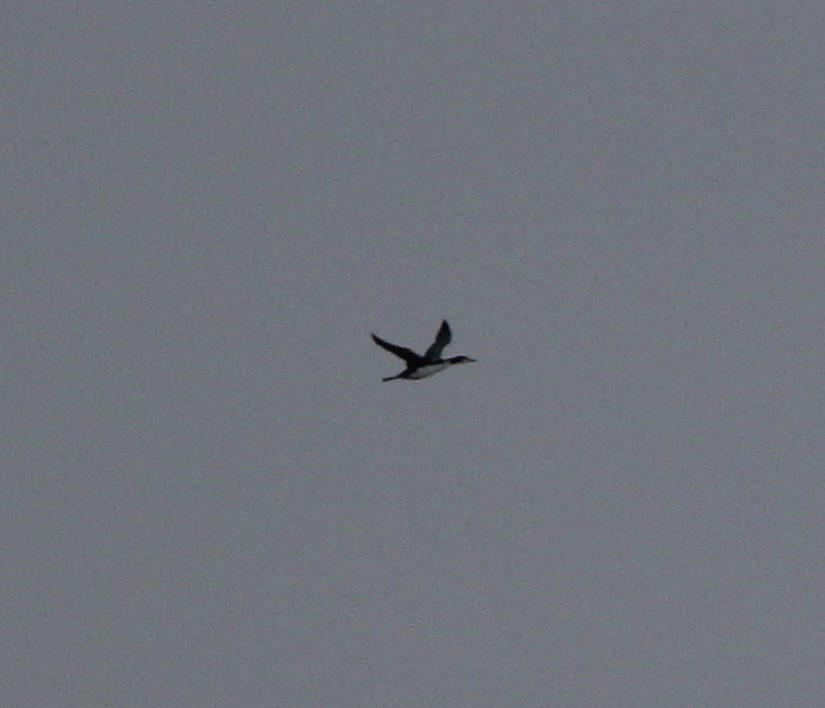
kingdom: Animalia
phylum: Chordata
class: Aves
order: Gaviiformes
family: Gaviidae
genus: Gavia
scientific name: Gavia immer
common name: Common loon
